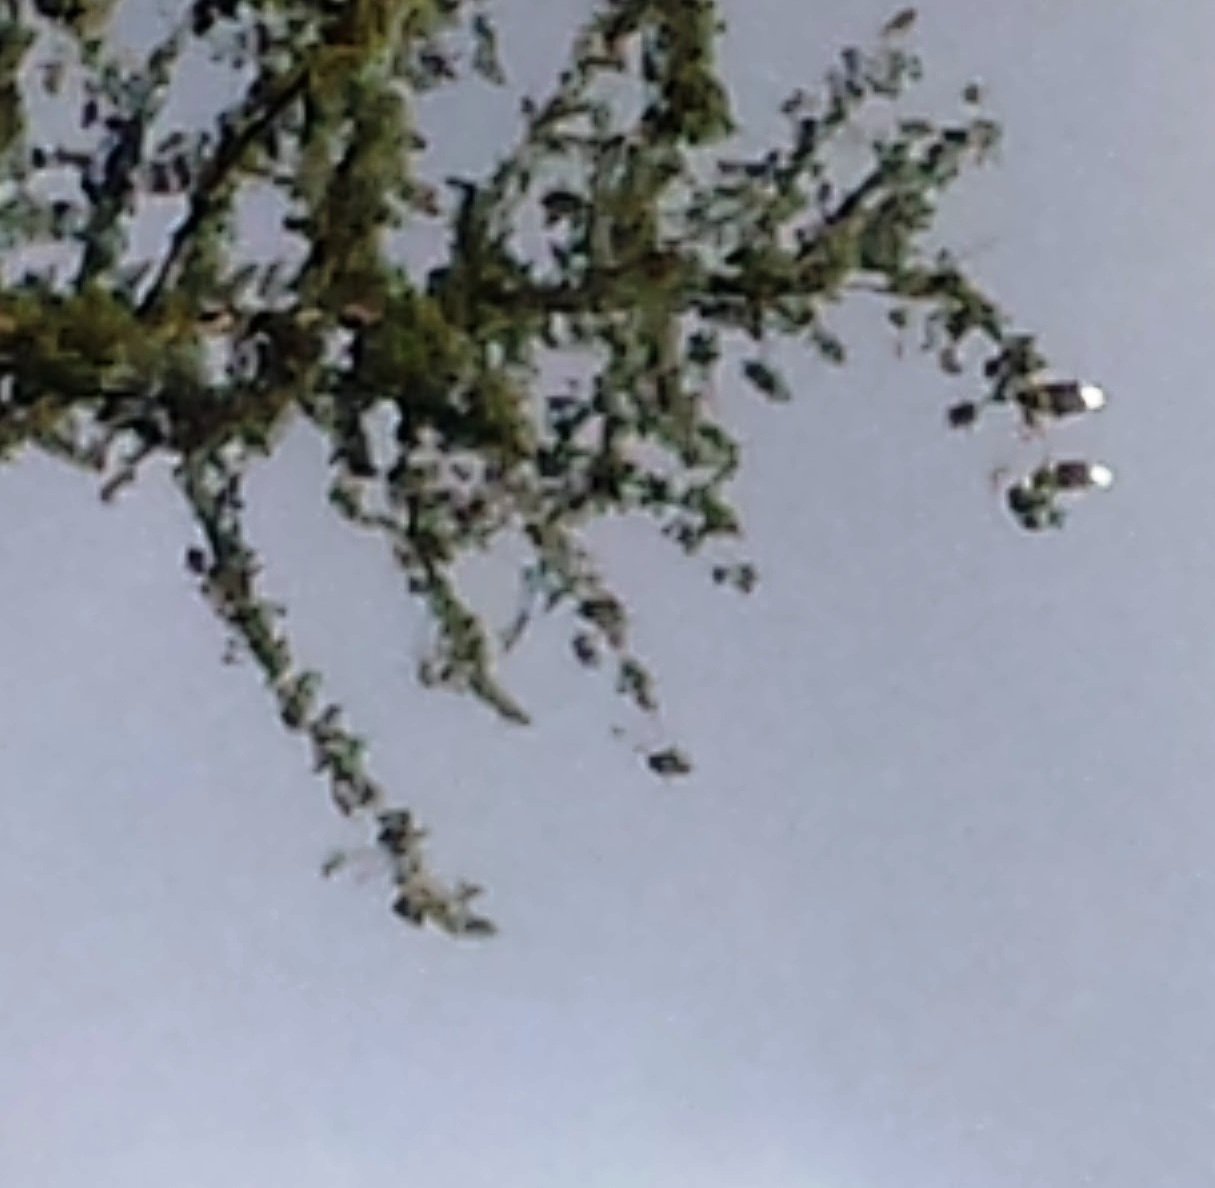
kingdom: Animalia
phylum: Chordata
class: Aves
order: Accipitriformes
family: Accipitridae
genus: Haliaeetus
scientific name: Haliaeetus leucocephalus
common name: Bald eagle
